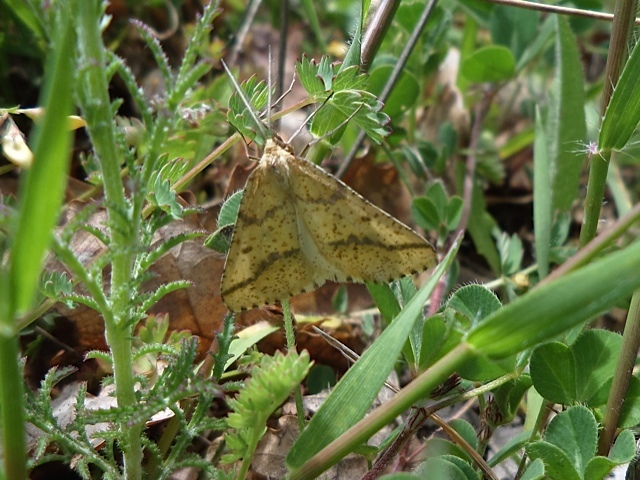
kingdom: Animalia
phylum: Arthropoda
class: Insecta
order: Lepidoptera
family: Geometridae
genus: Aspitates
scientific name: Aspitates ochrearia
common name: Yellow belle
